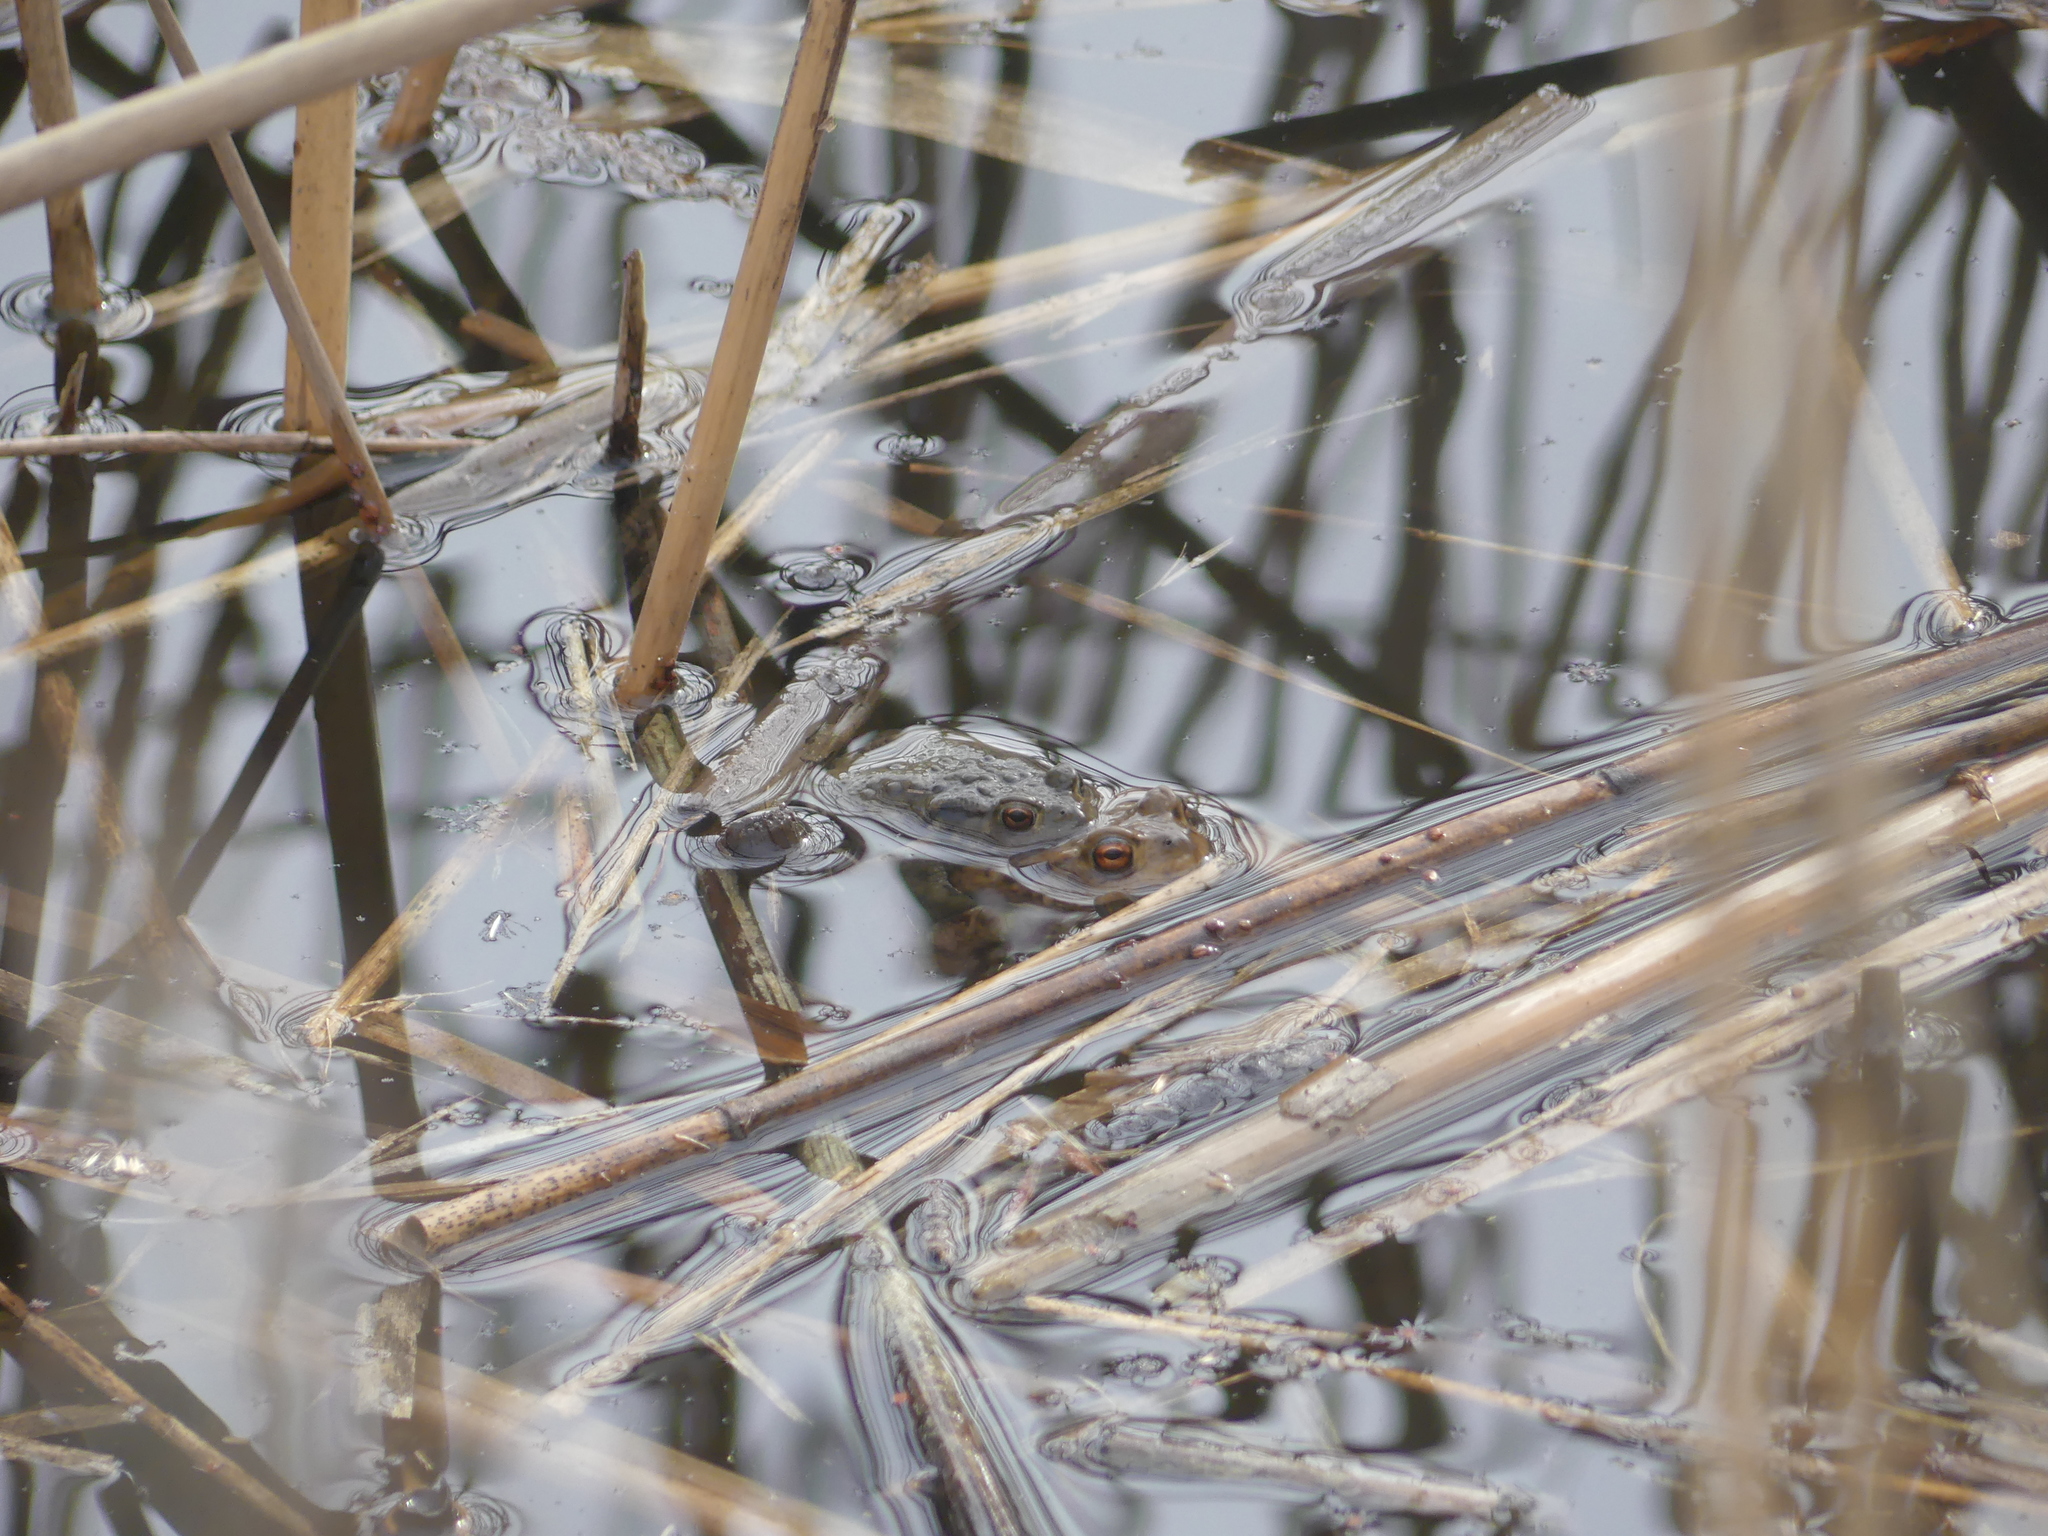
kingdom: Animalia
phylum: Chordata
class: Amphibia
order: Anura
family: Bufonidae
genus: Bufo
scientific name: Bufo bufo
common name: Common toad
